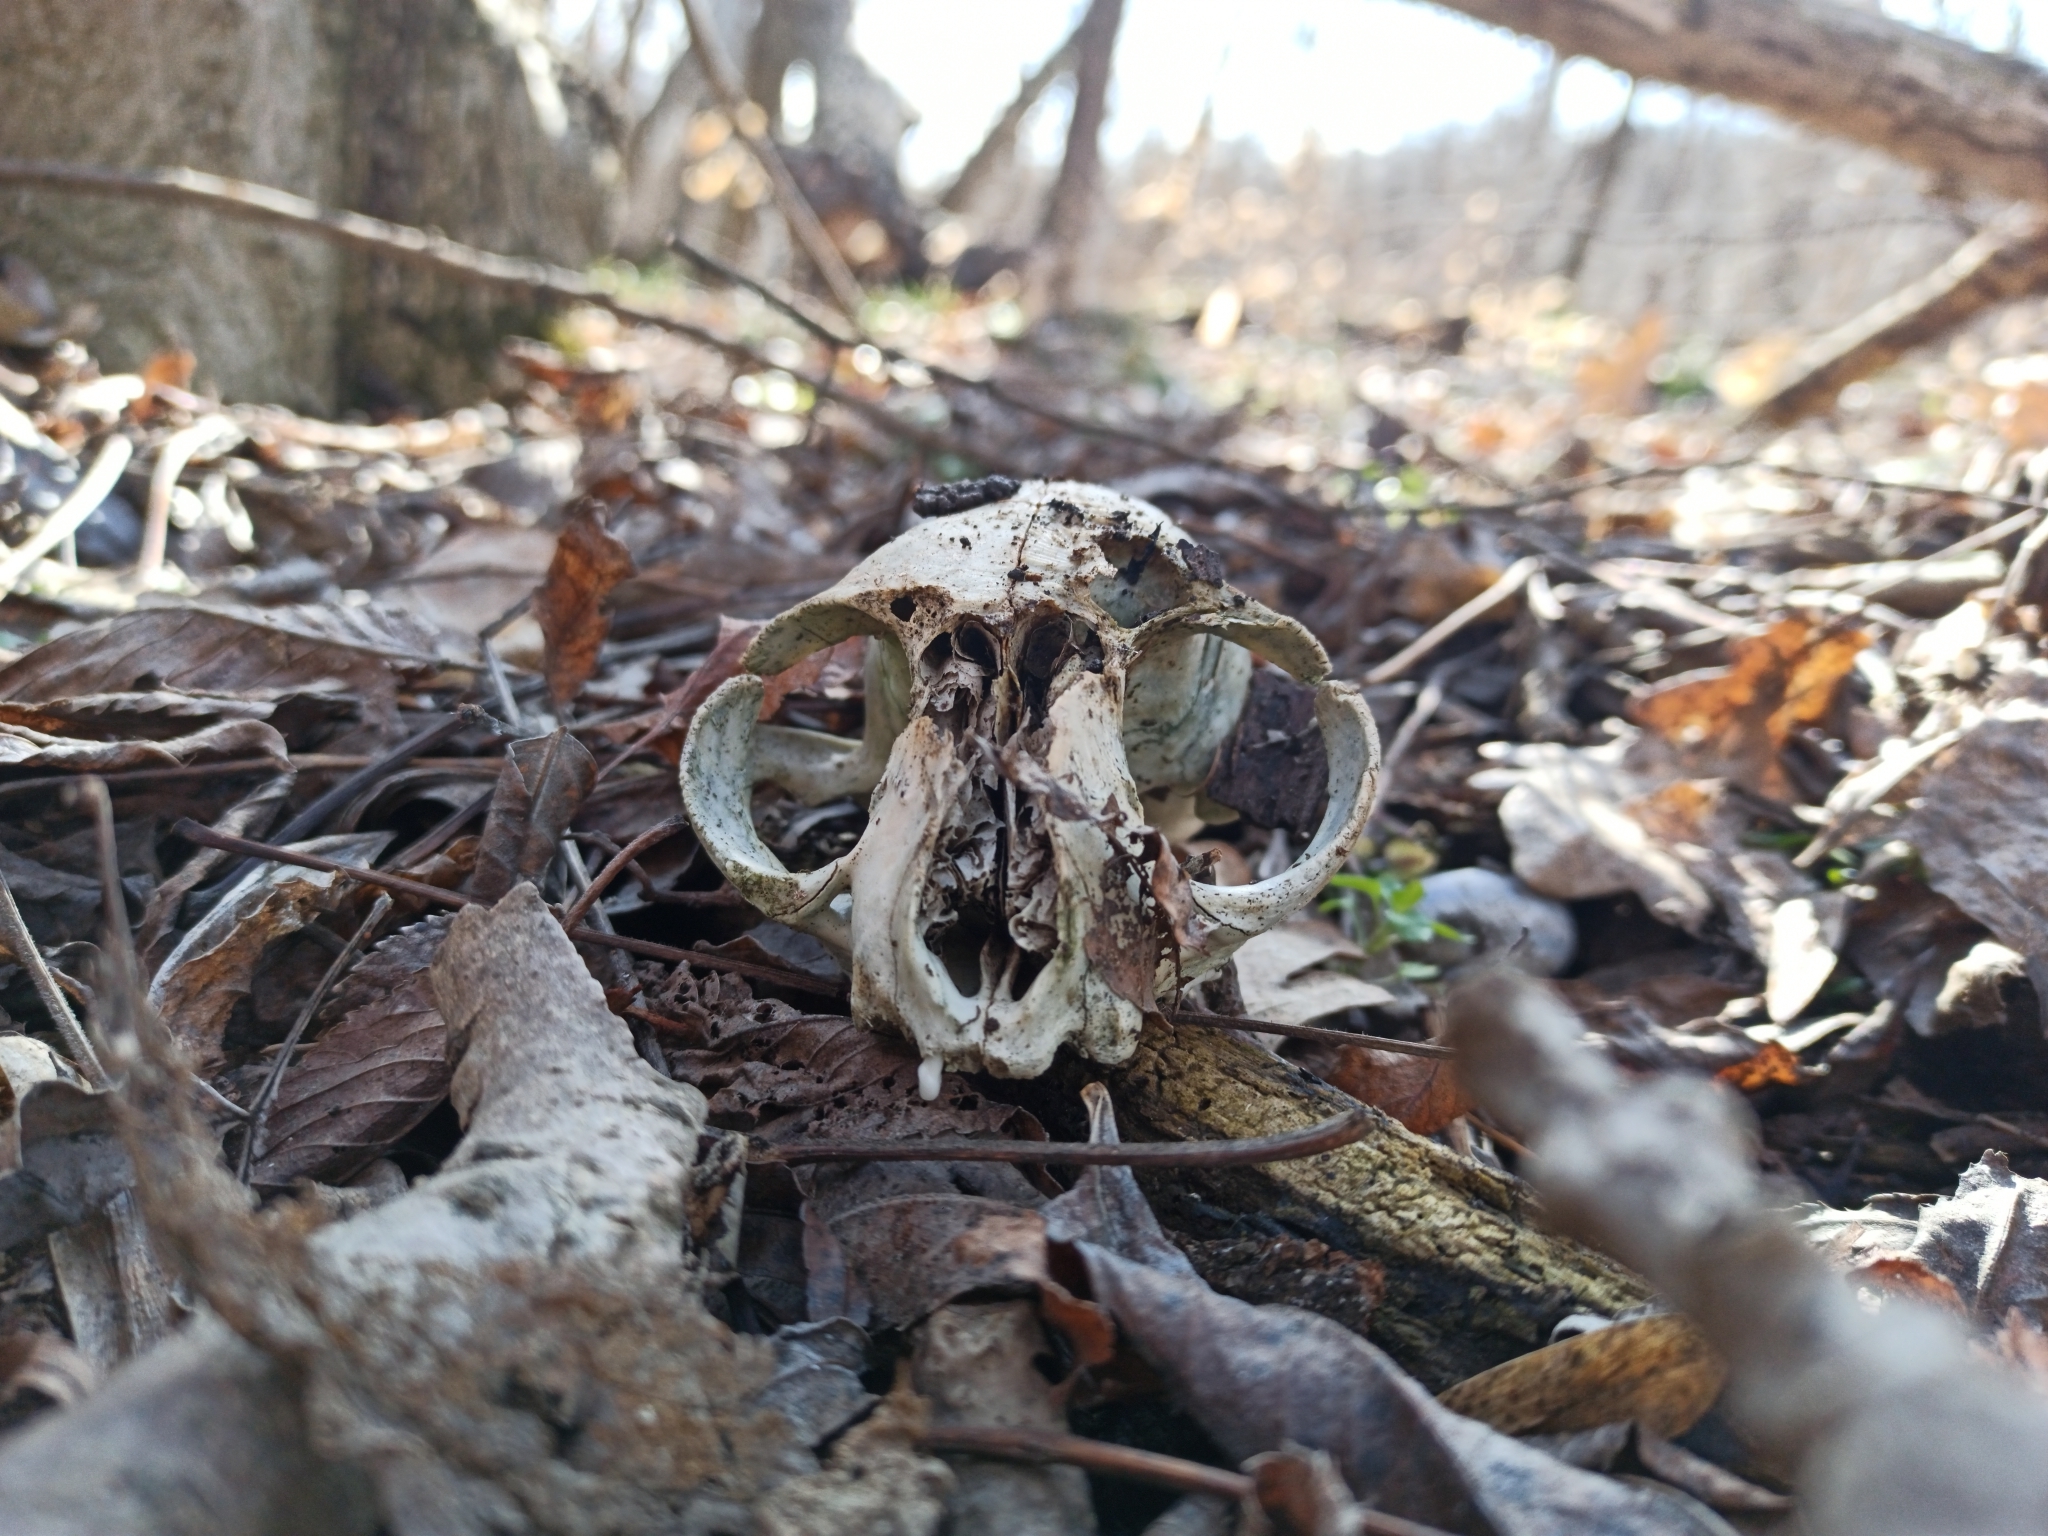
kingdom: Animalia
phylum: Chordata
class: Mammalia
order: Carnivora
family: Felidae
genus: Felis
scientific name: Felis catus
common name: Domestic cat
